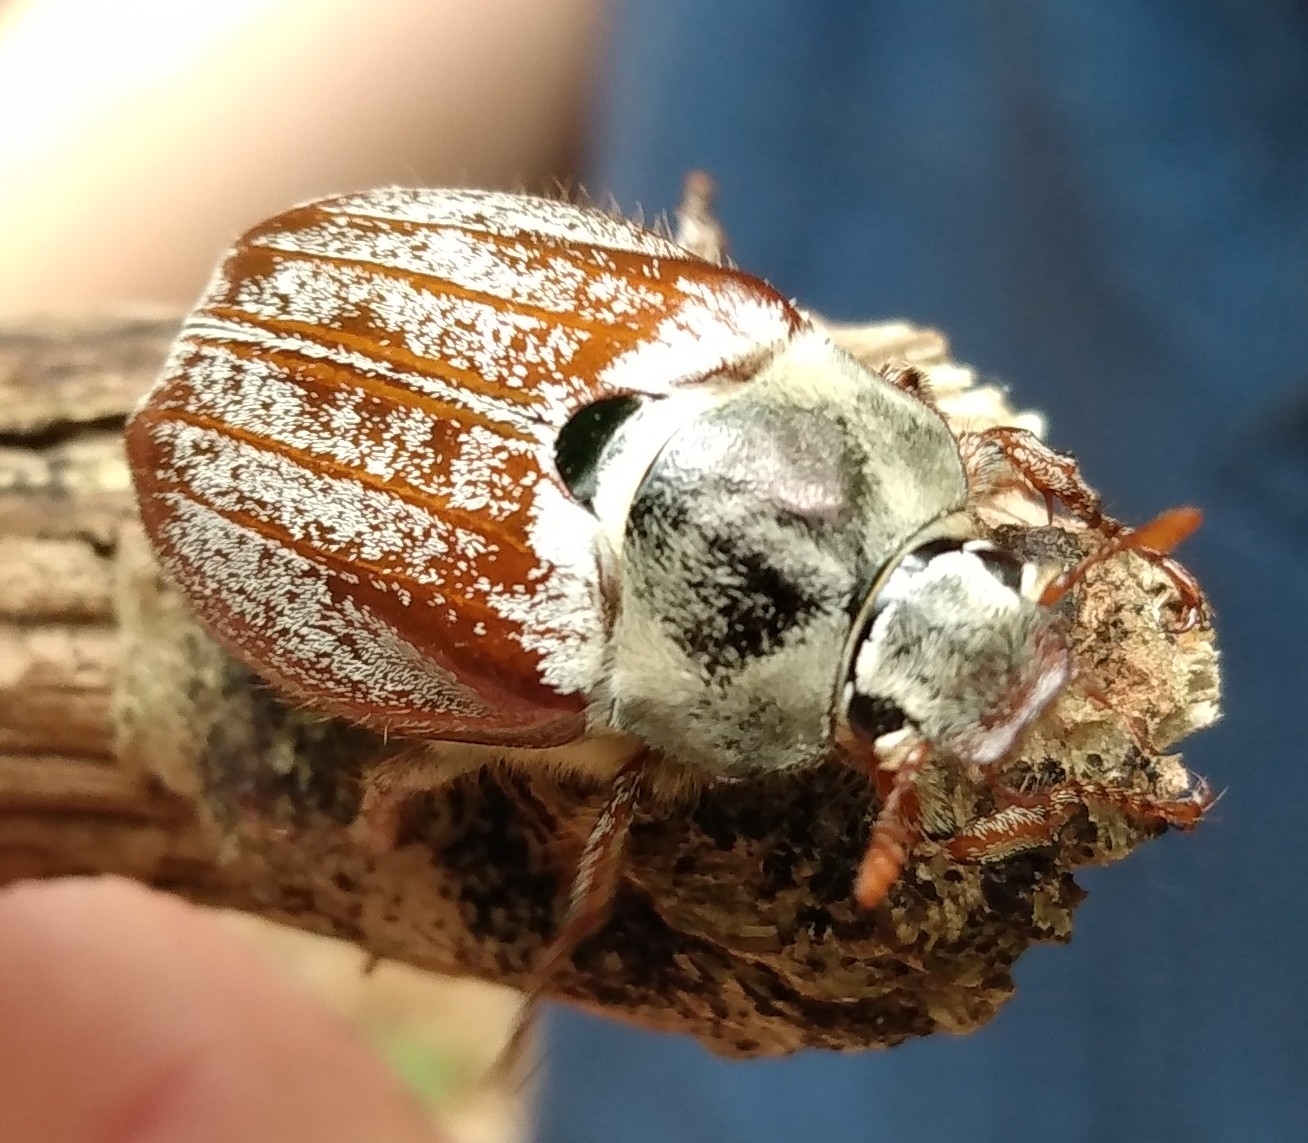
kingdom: Animalia
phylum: Arthropoda
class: Insecta
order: Coleoptera
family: Scarabaeidae
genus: Melolontha
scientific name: Melolontha melolontha
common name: Cockchafer maybeetle
